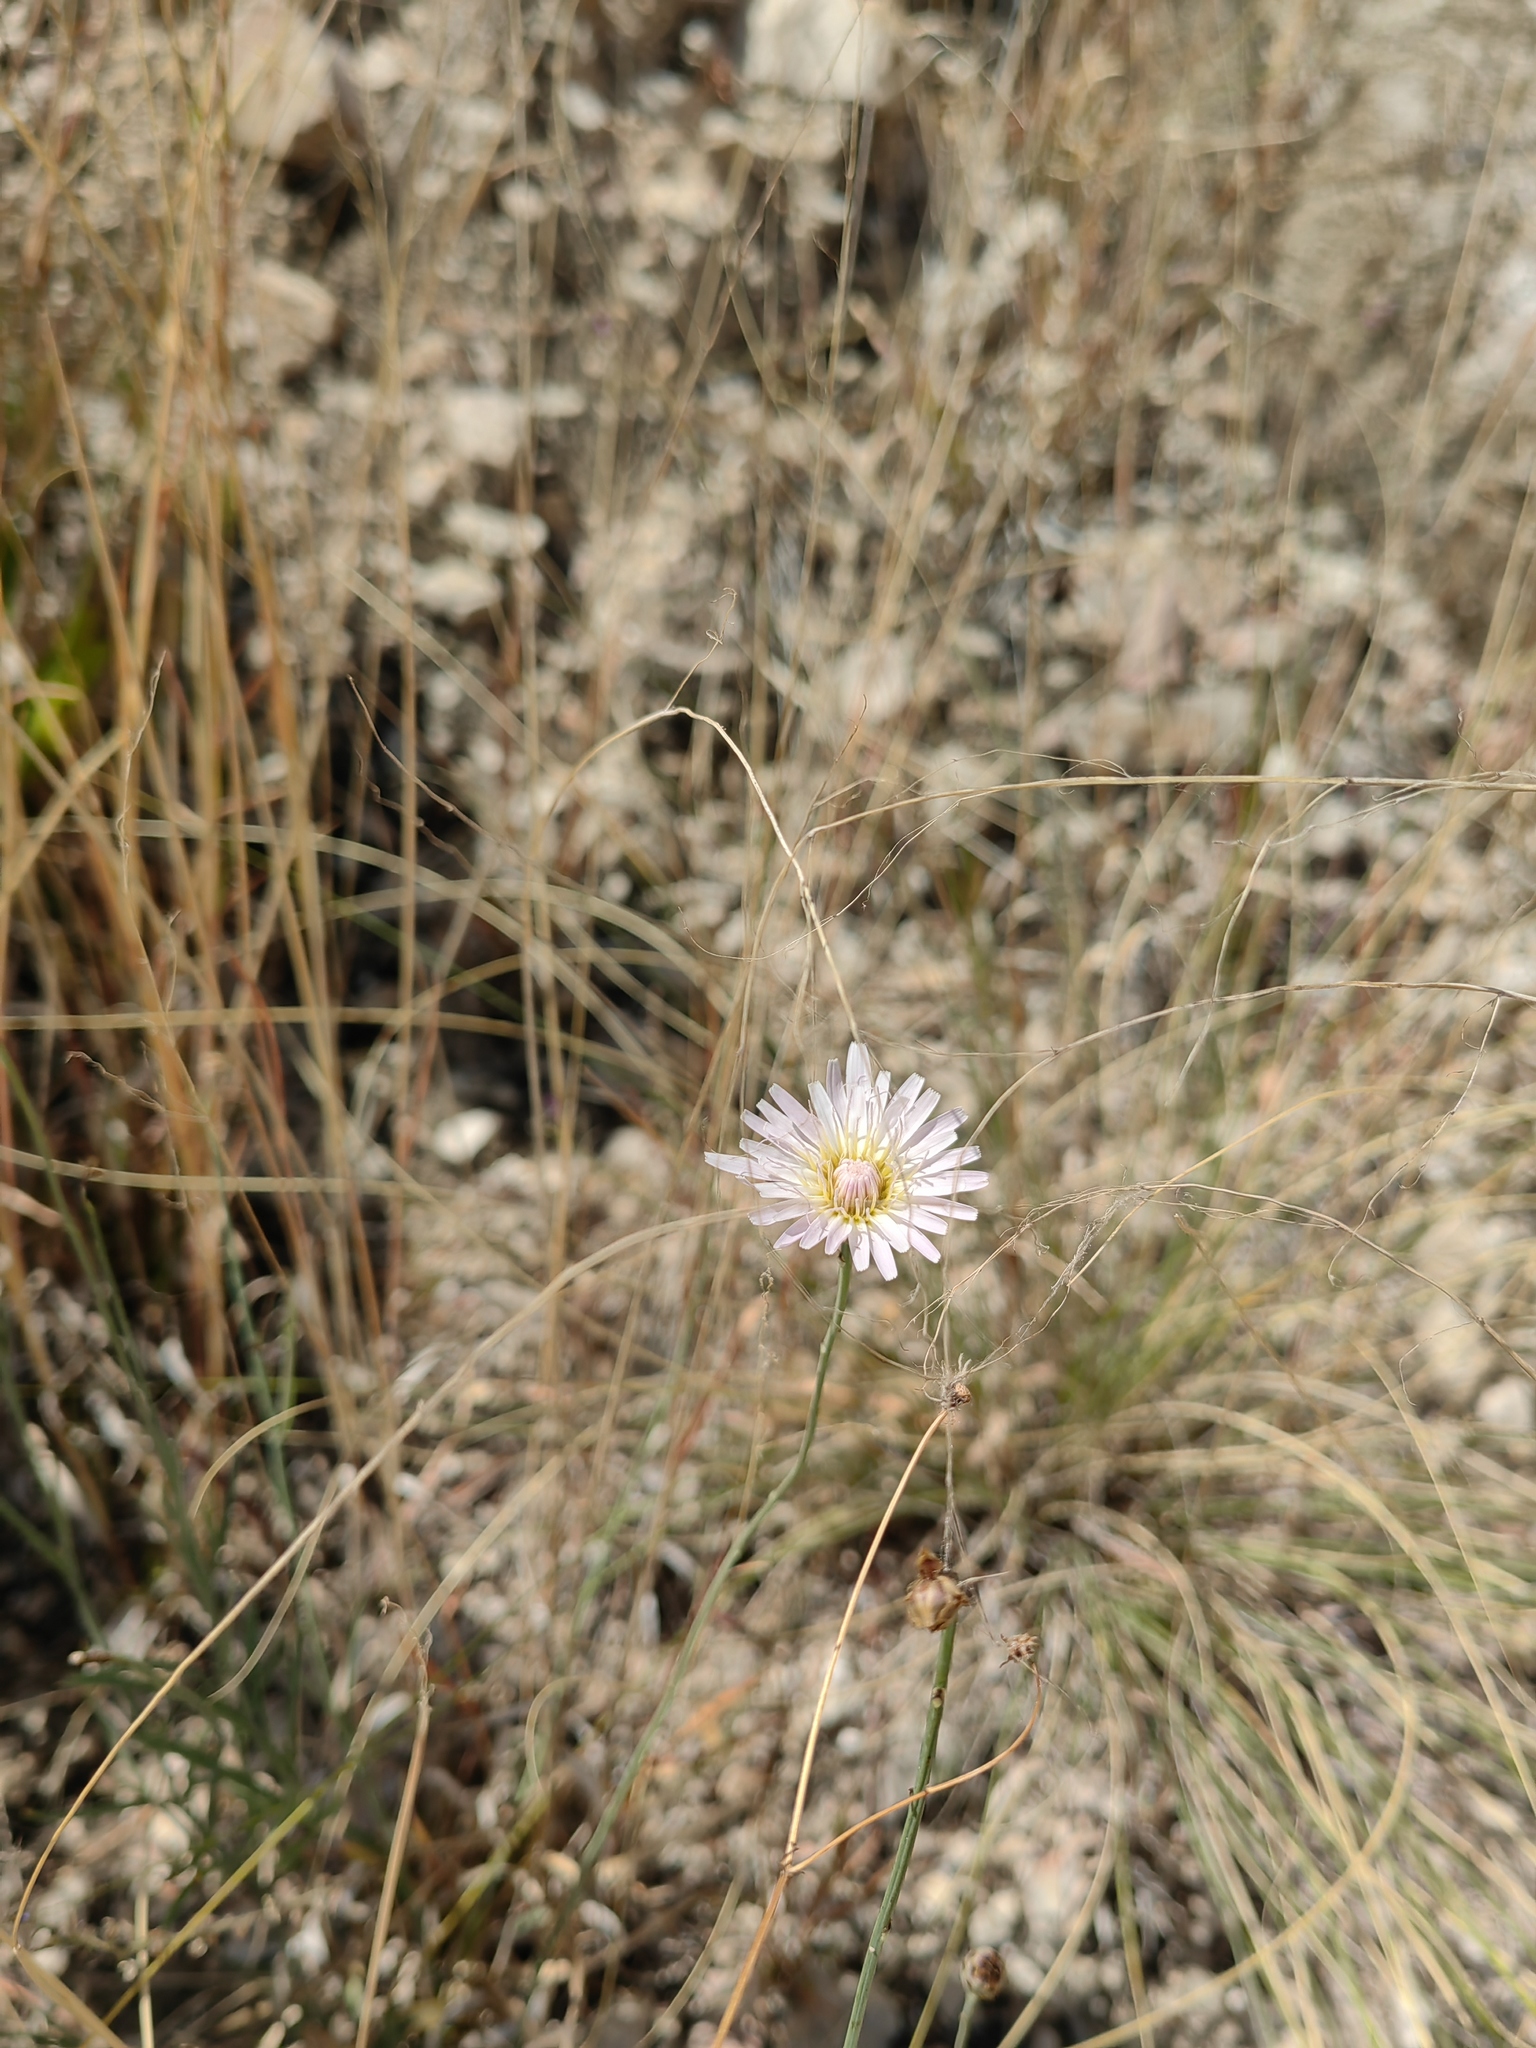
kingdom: Plantae
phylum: Tracheophyta
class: Magnoliopsida
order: Asterales
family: Asteraceae
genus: Pinaropappus
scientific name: Pinaropappus roseus
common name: Rock-lettuce
